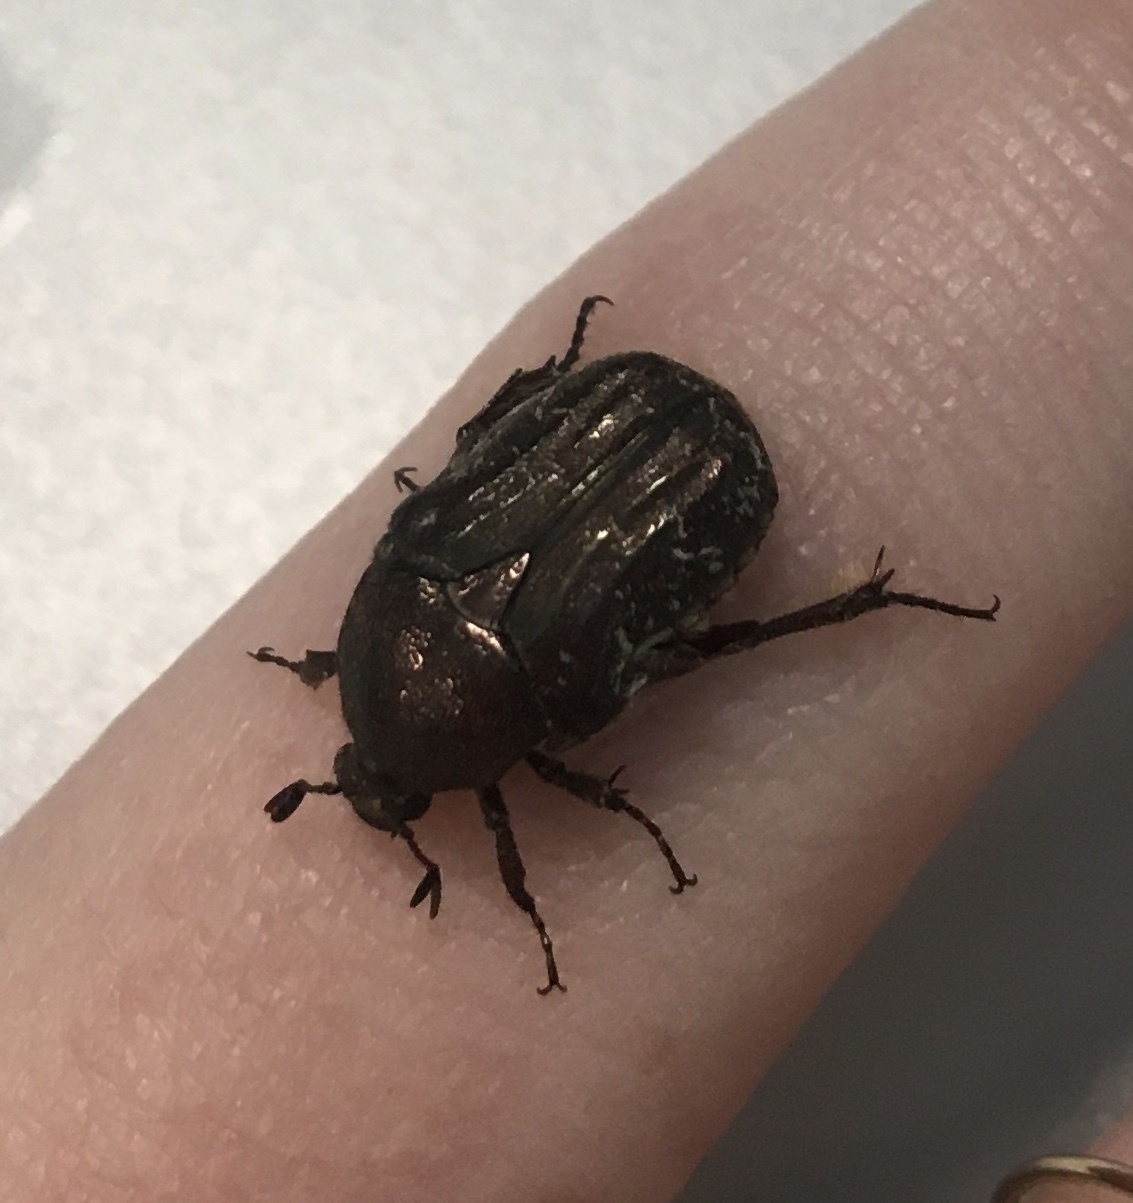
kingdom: Animalia
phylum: Arthropoda
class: Insecta
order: Coleoptera
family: Scarabaeidae
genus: Euphoria
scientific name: Euphoria sepulcralis
